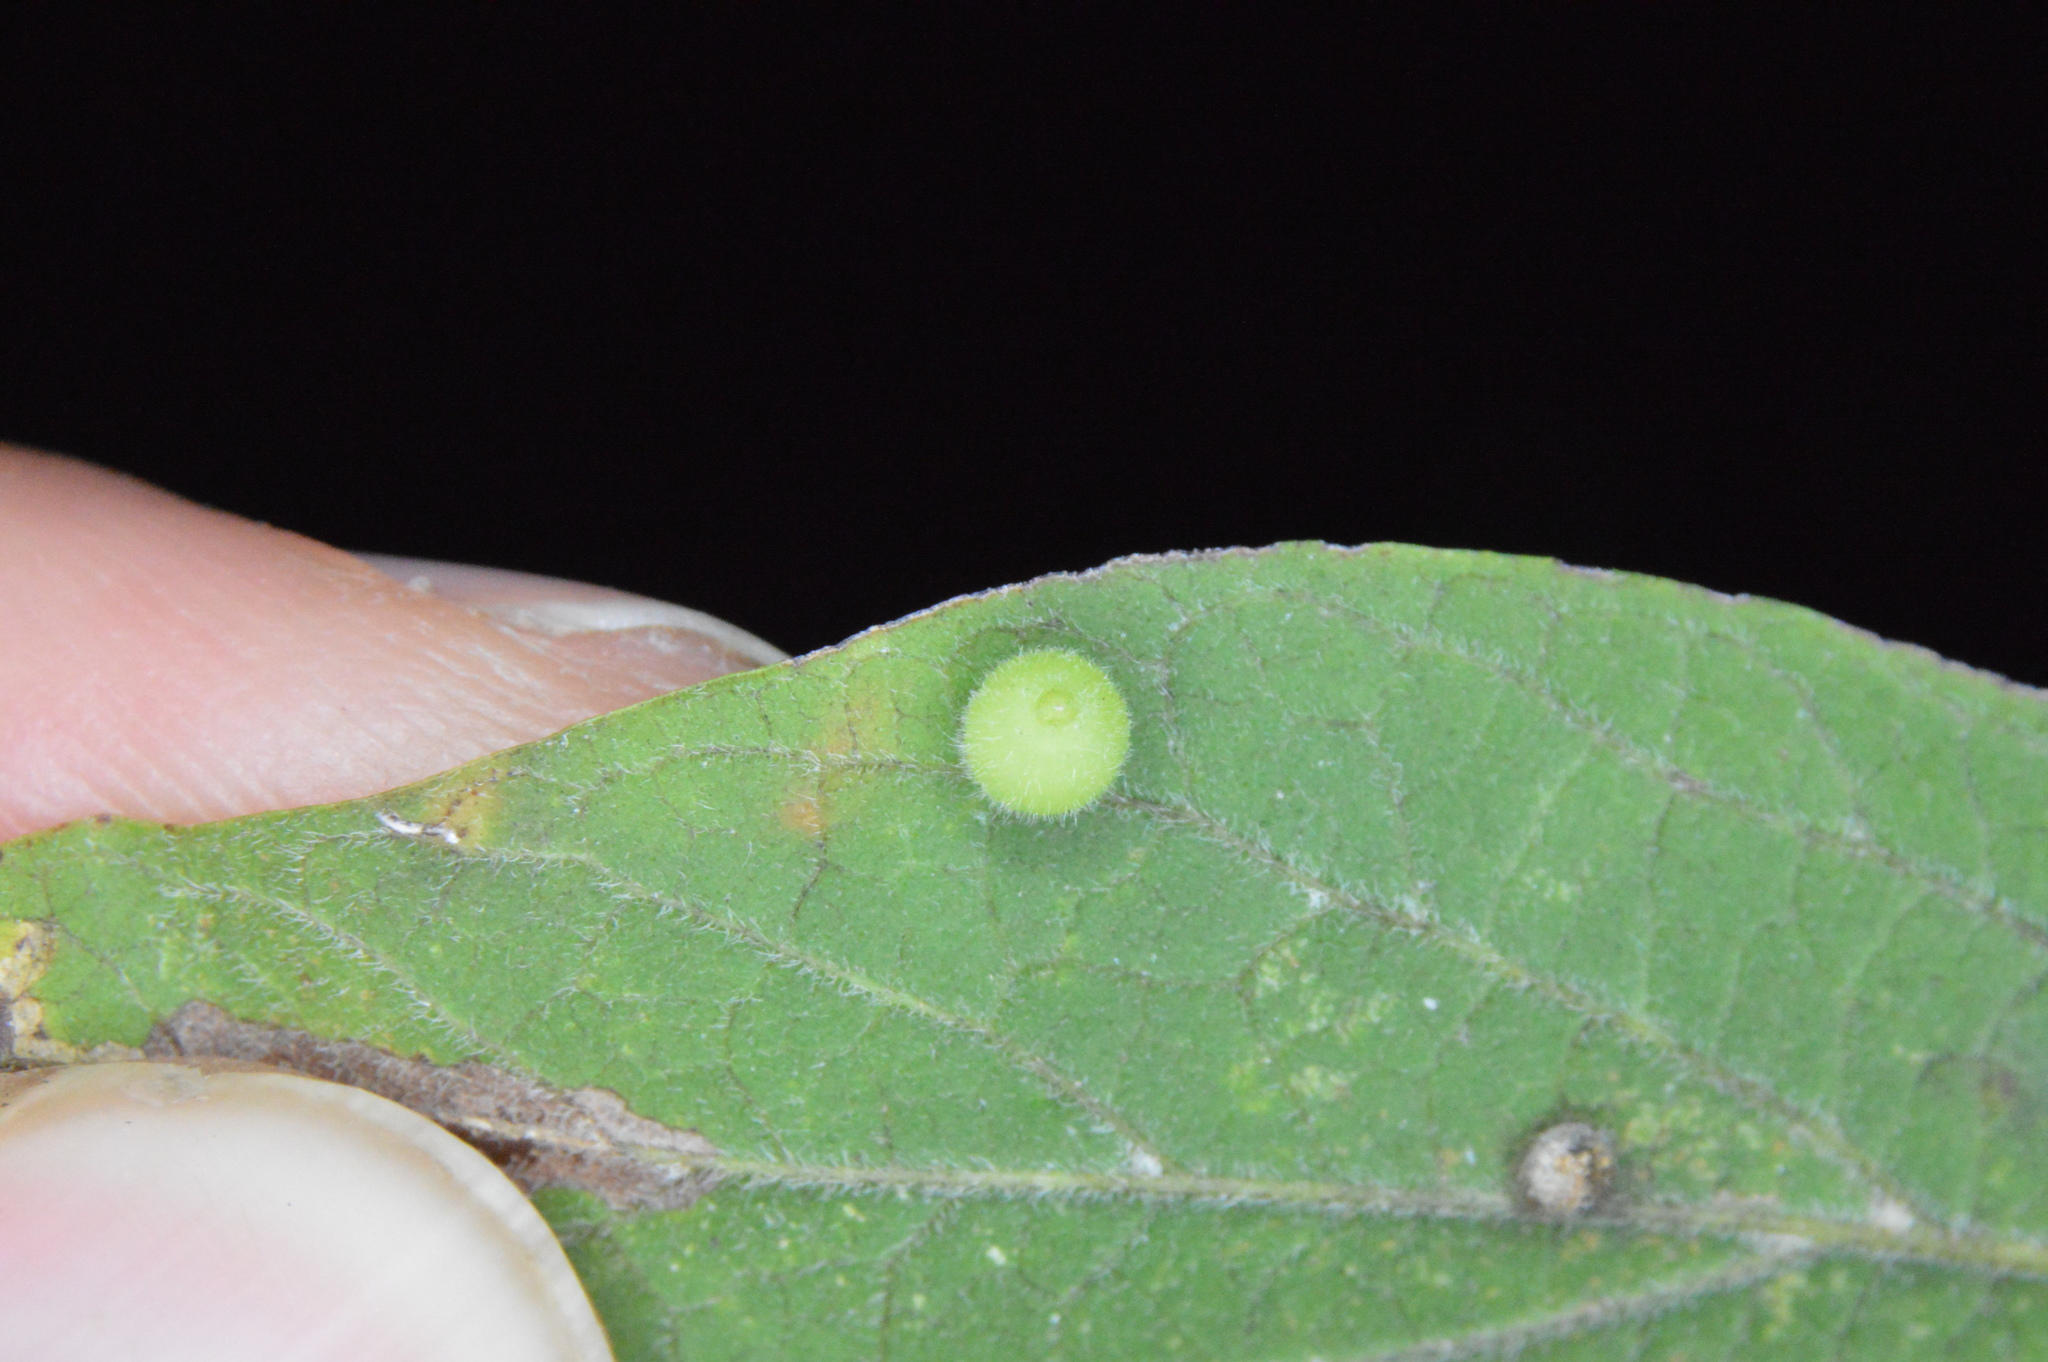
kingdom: Animalia
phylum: Arthropoda
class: Insecta
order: Diptera
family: Cecidomyiidae
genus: Celticecis
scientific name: Celticecis globosa
